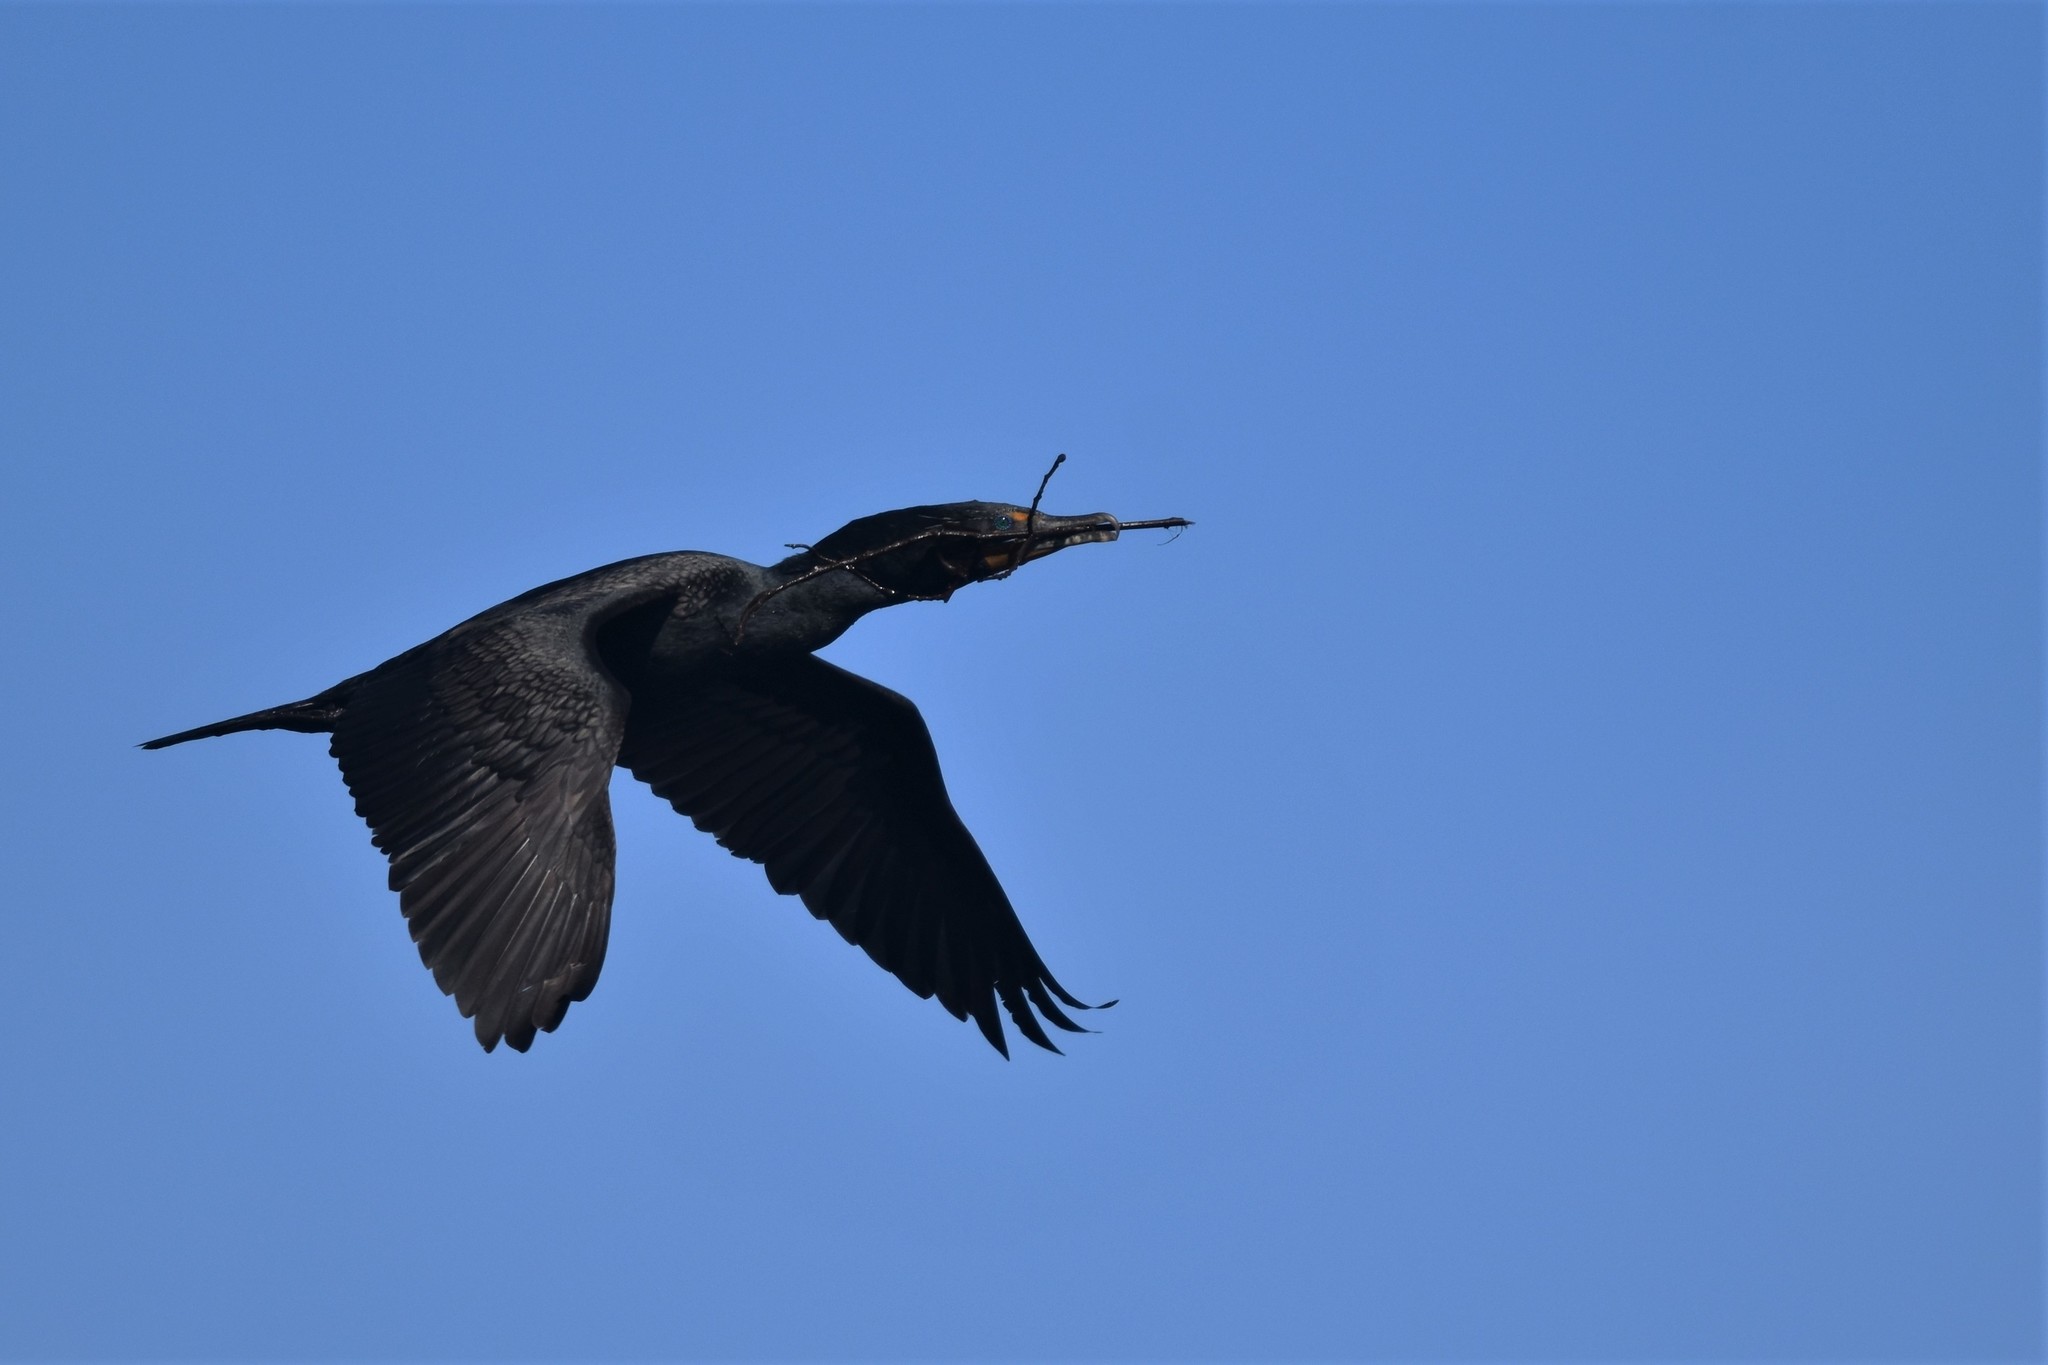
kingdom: Animalia
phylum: Chordata
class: Aves
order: Suliformes
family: Phalacrocoracidae
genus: Phalacrocorax
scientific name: Phalacrocorax auritus
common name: Double-crested cormorant
